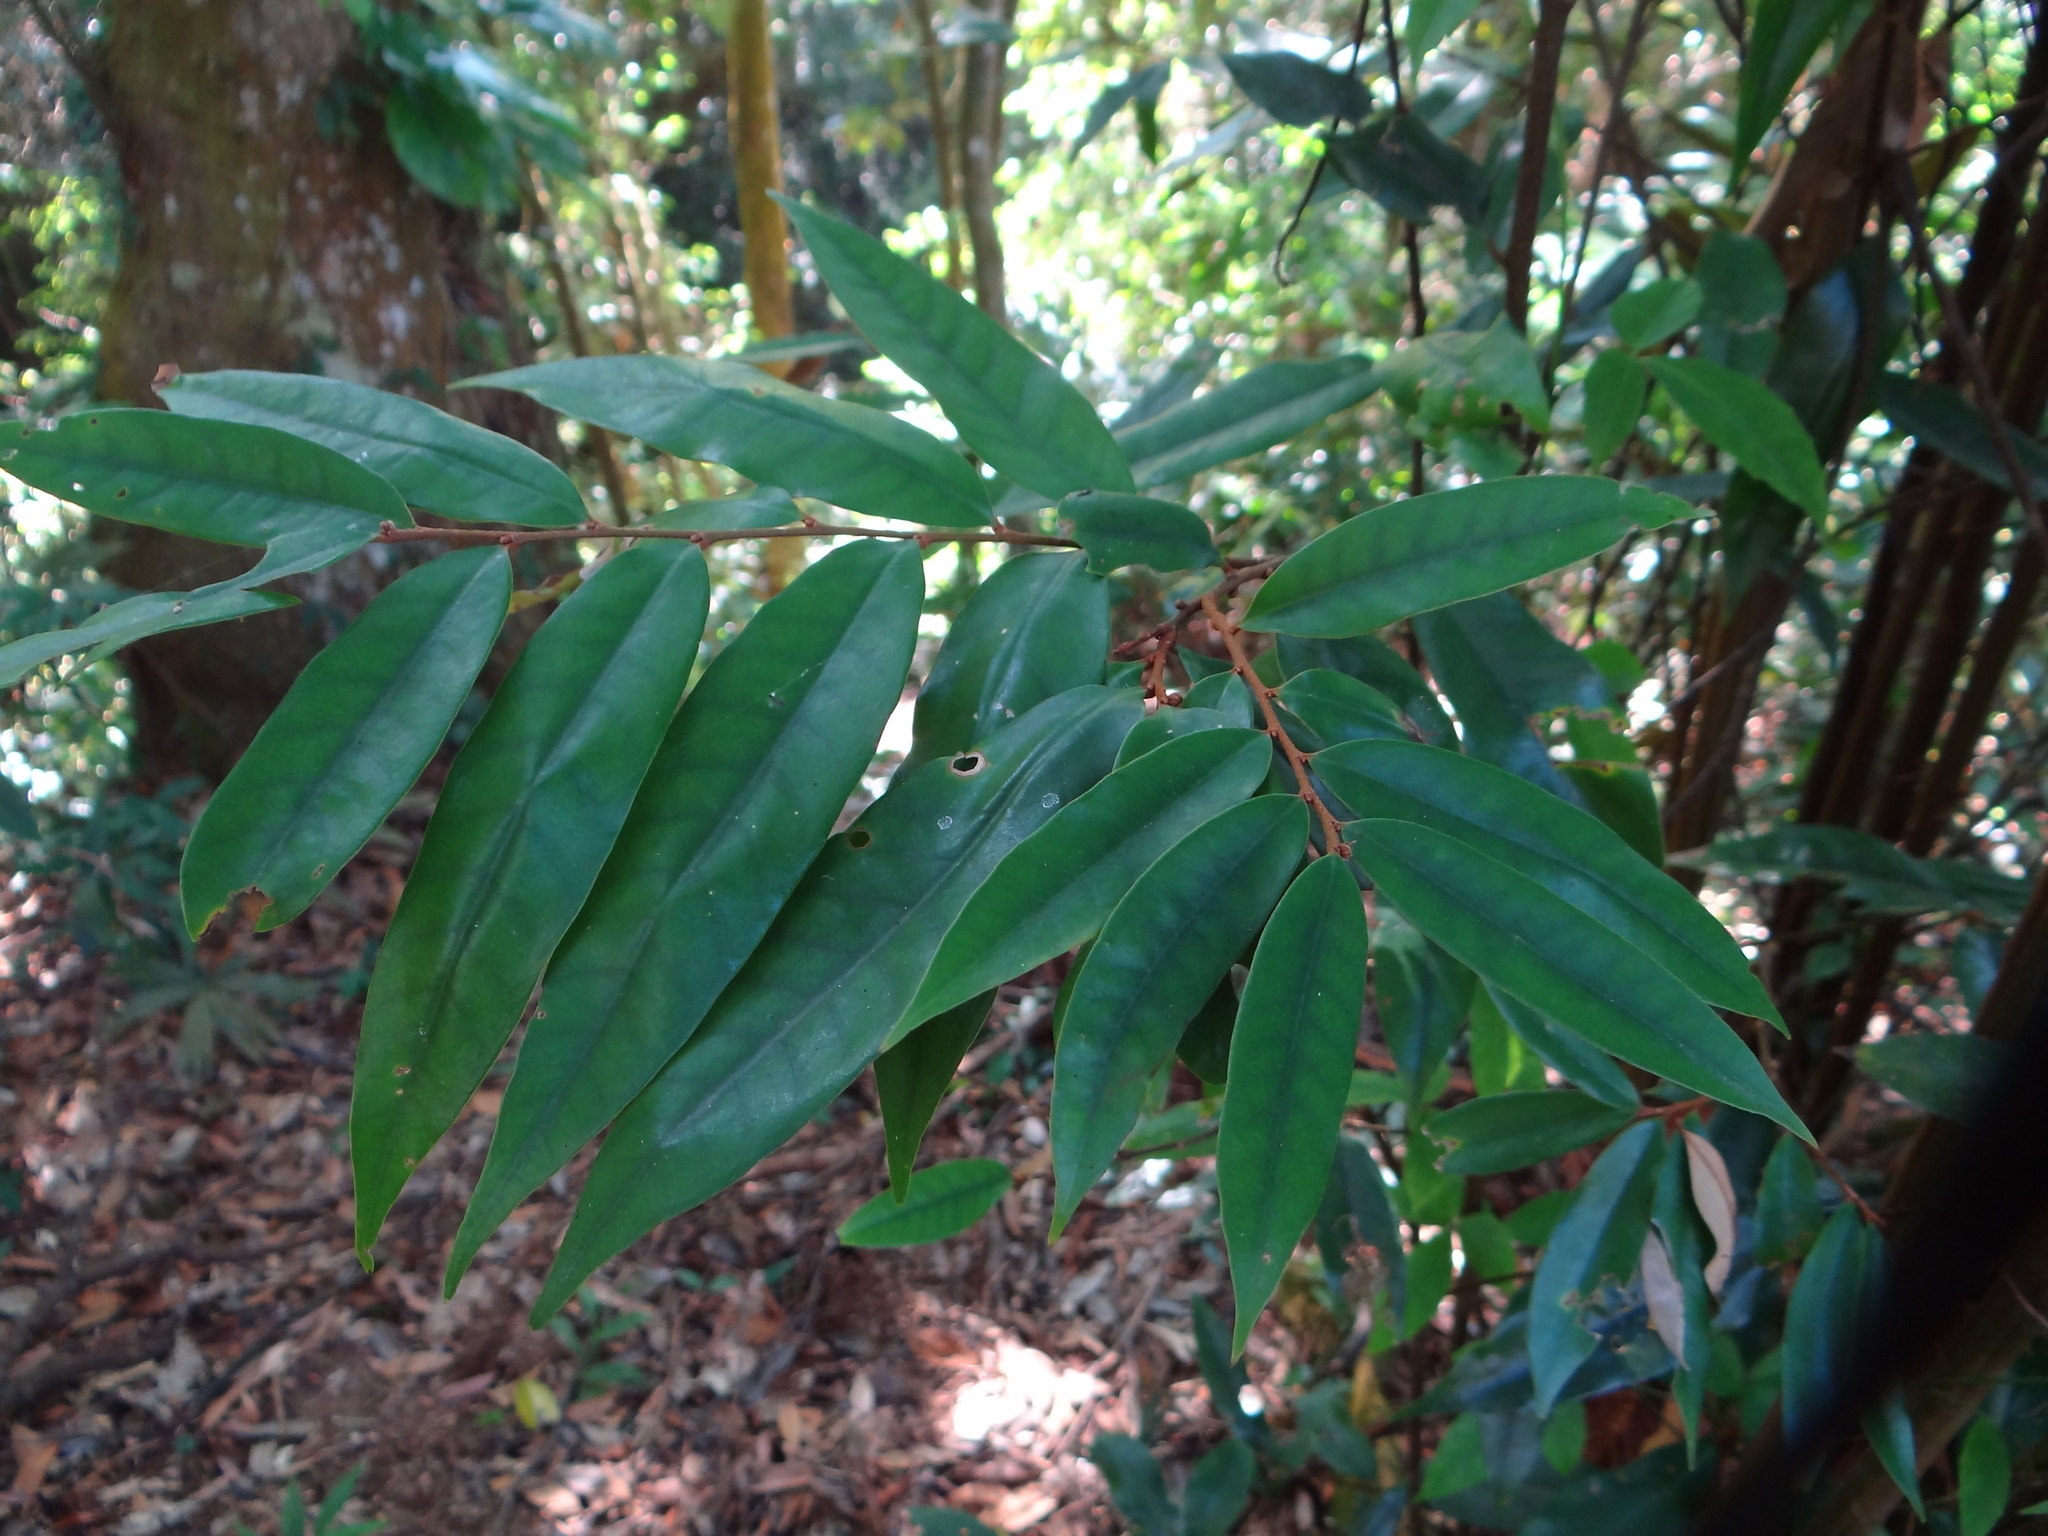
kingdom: Plantae
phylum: Tracheophyta
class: Magnoliopsida
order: Fagales
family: Fagaceae
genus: Castanopsis
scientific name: Castanopsis fargesii
